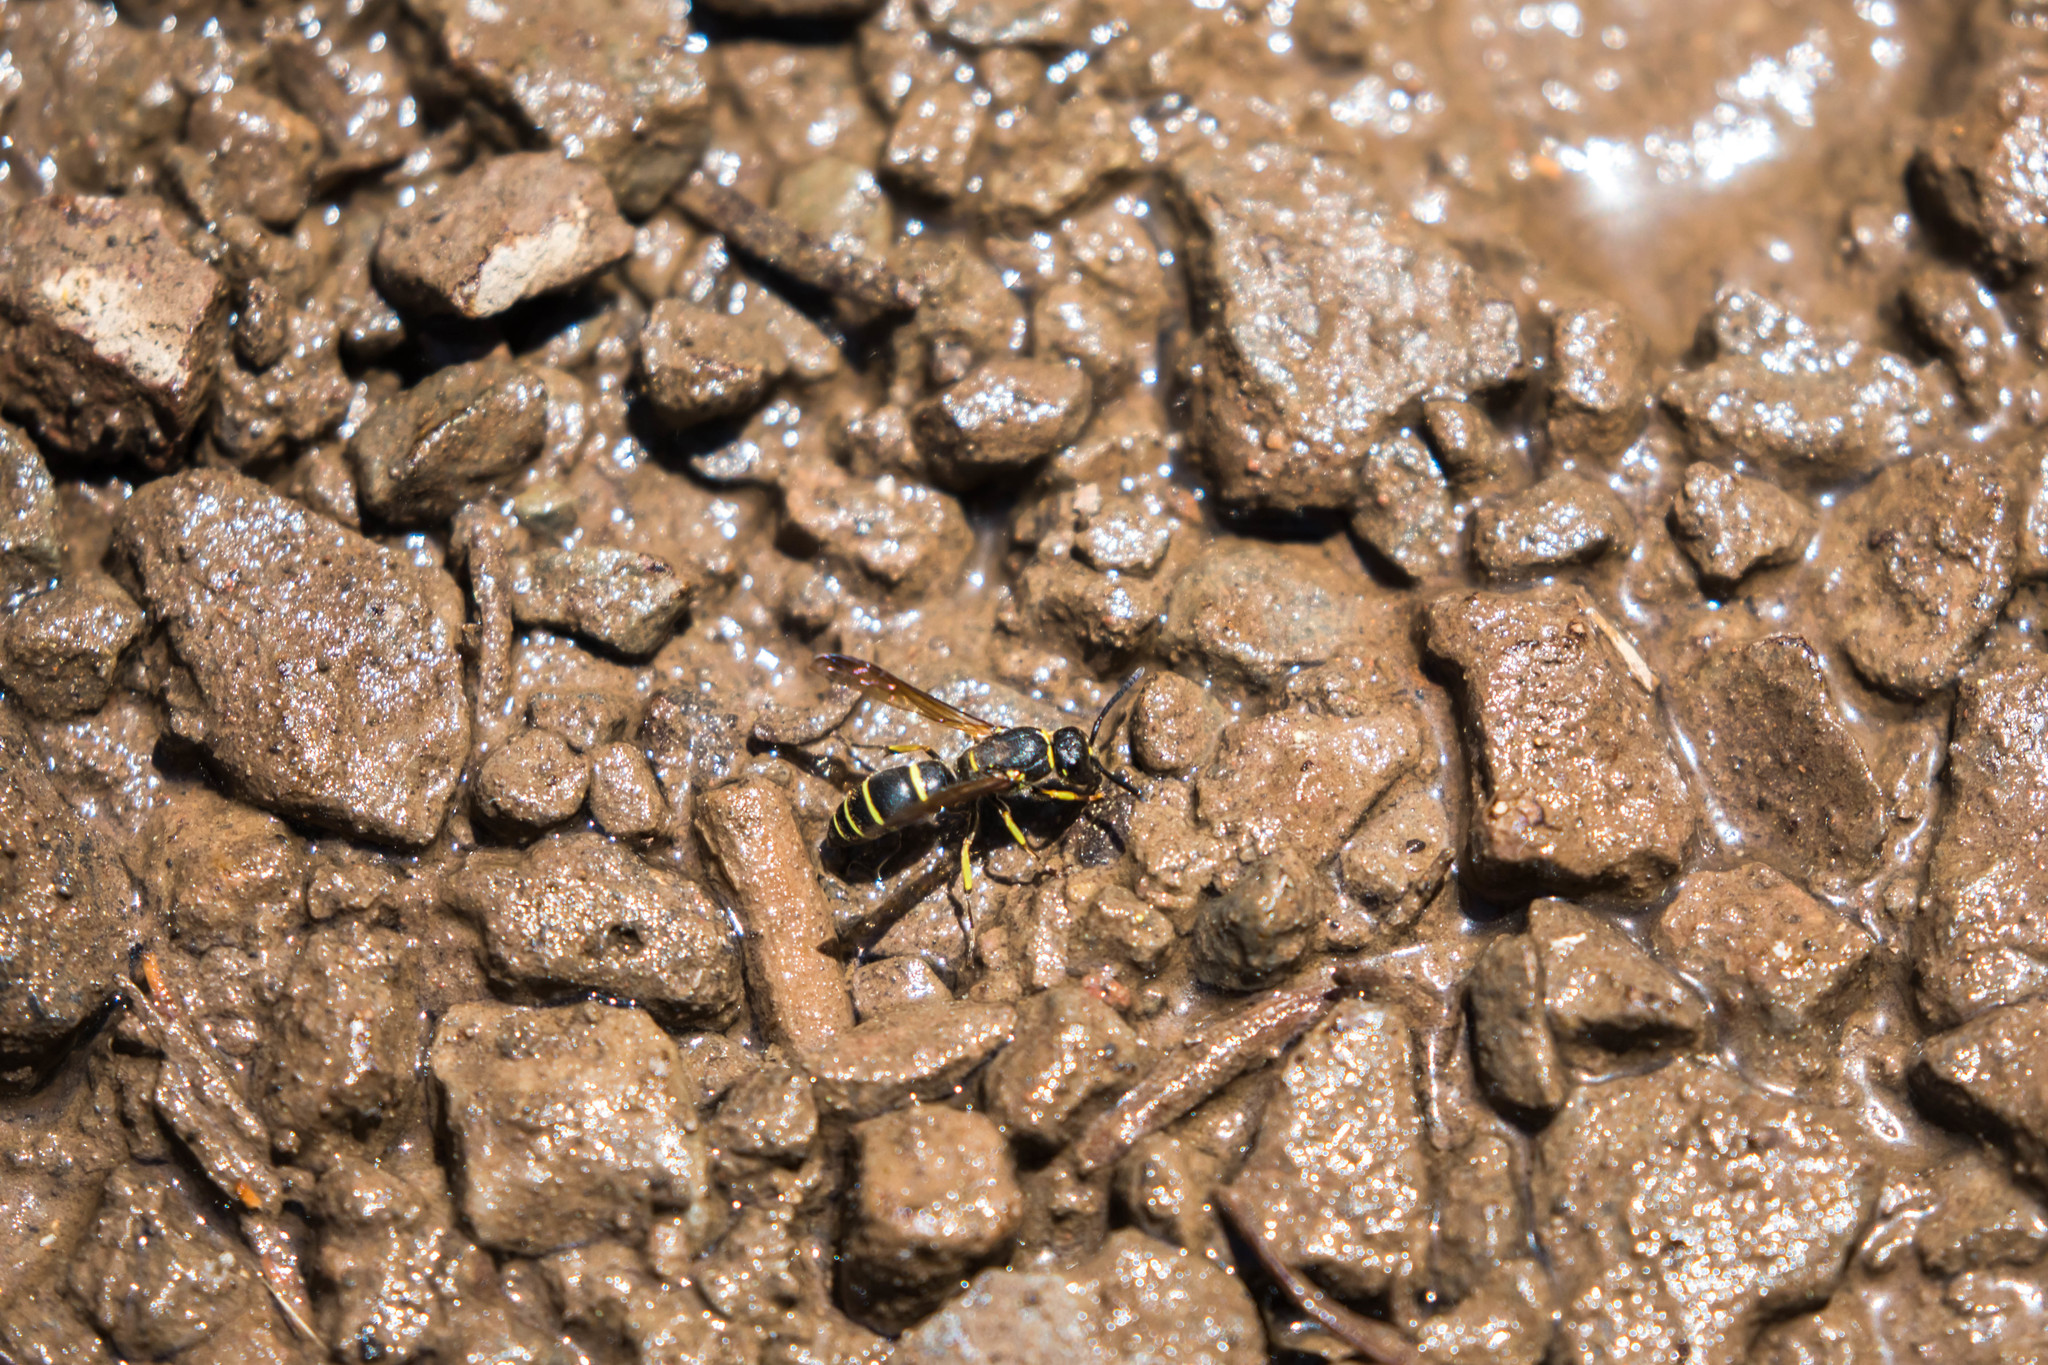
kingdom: Animalia
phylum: Arthropoda
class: Insecta
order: Hymenoptera
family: Vespidae
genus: Ancistrocerus
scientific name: Ancistrocerus adiabatus
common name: Bramble mason wasp
